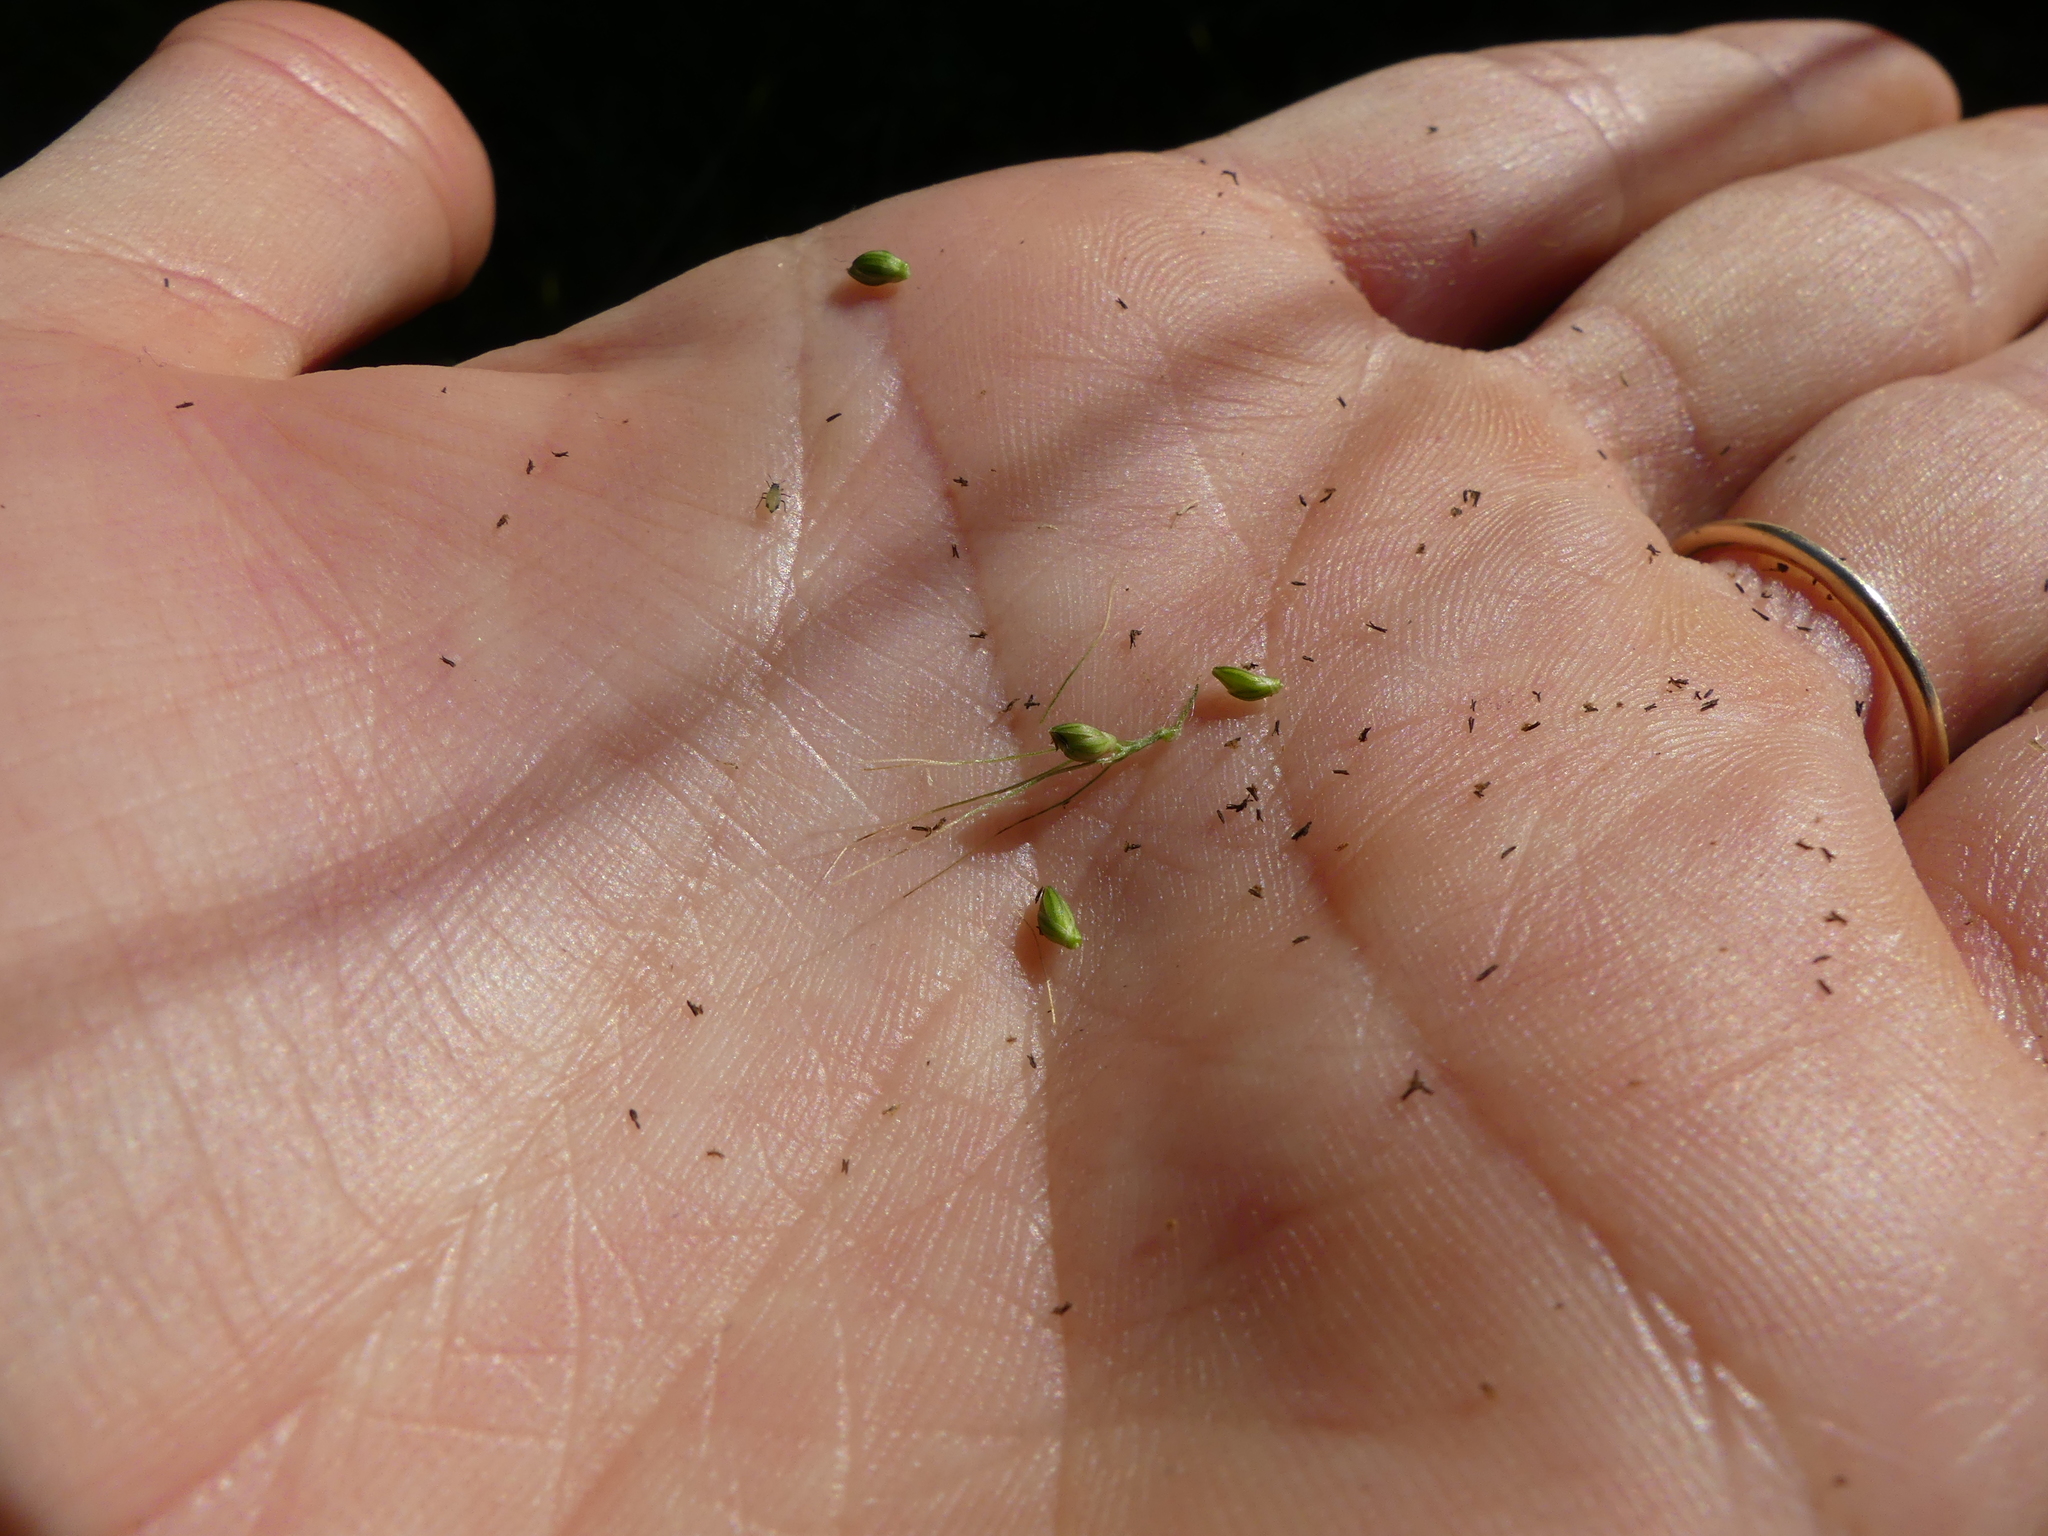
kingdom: Plantae
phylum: Tracheophyta
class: Liliopsida
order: Poales
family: Poaceae
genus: Setaria
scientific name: Setaria faberi
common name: Nodding bristle-grass
